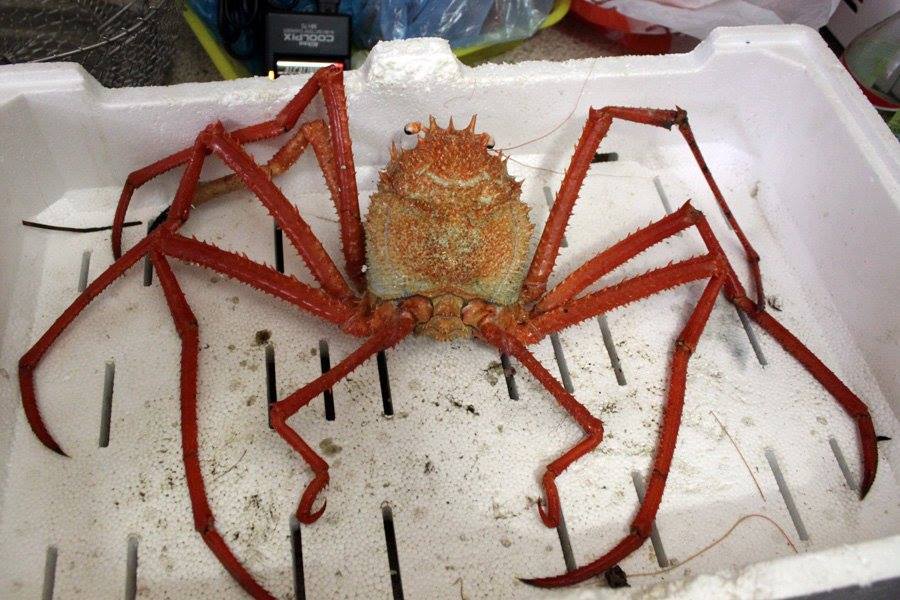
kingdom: Animalia
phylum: Arthropoda
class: Malacostraca
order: Decapoda
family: Homolidae
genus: Paromola
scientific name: Paromola cuvieri
